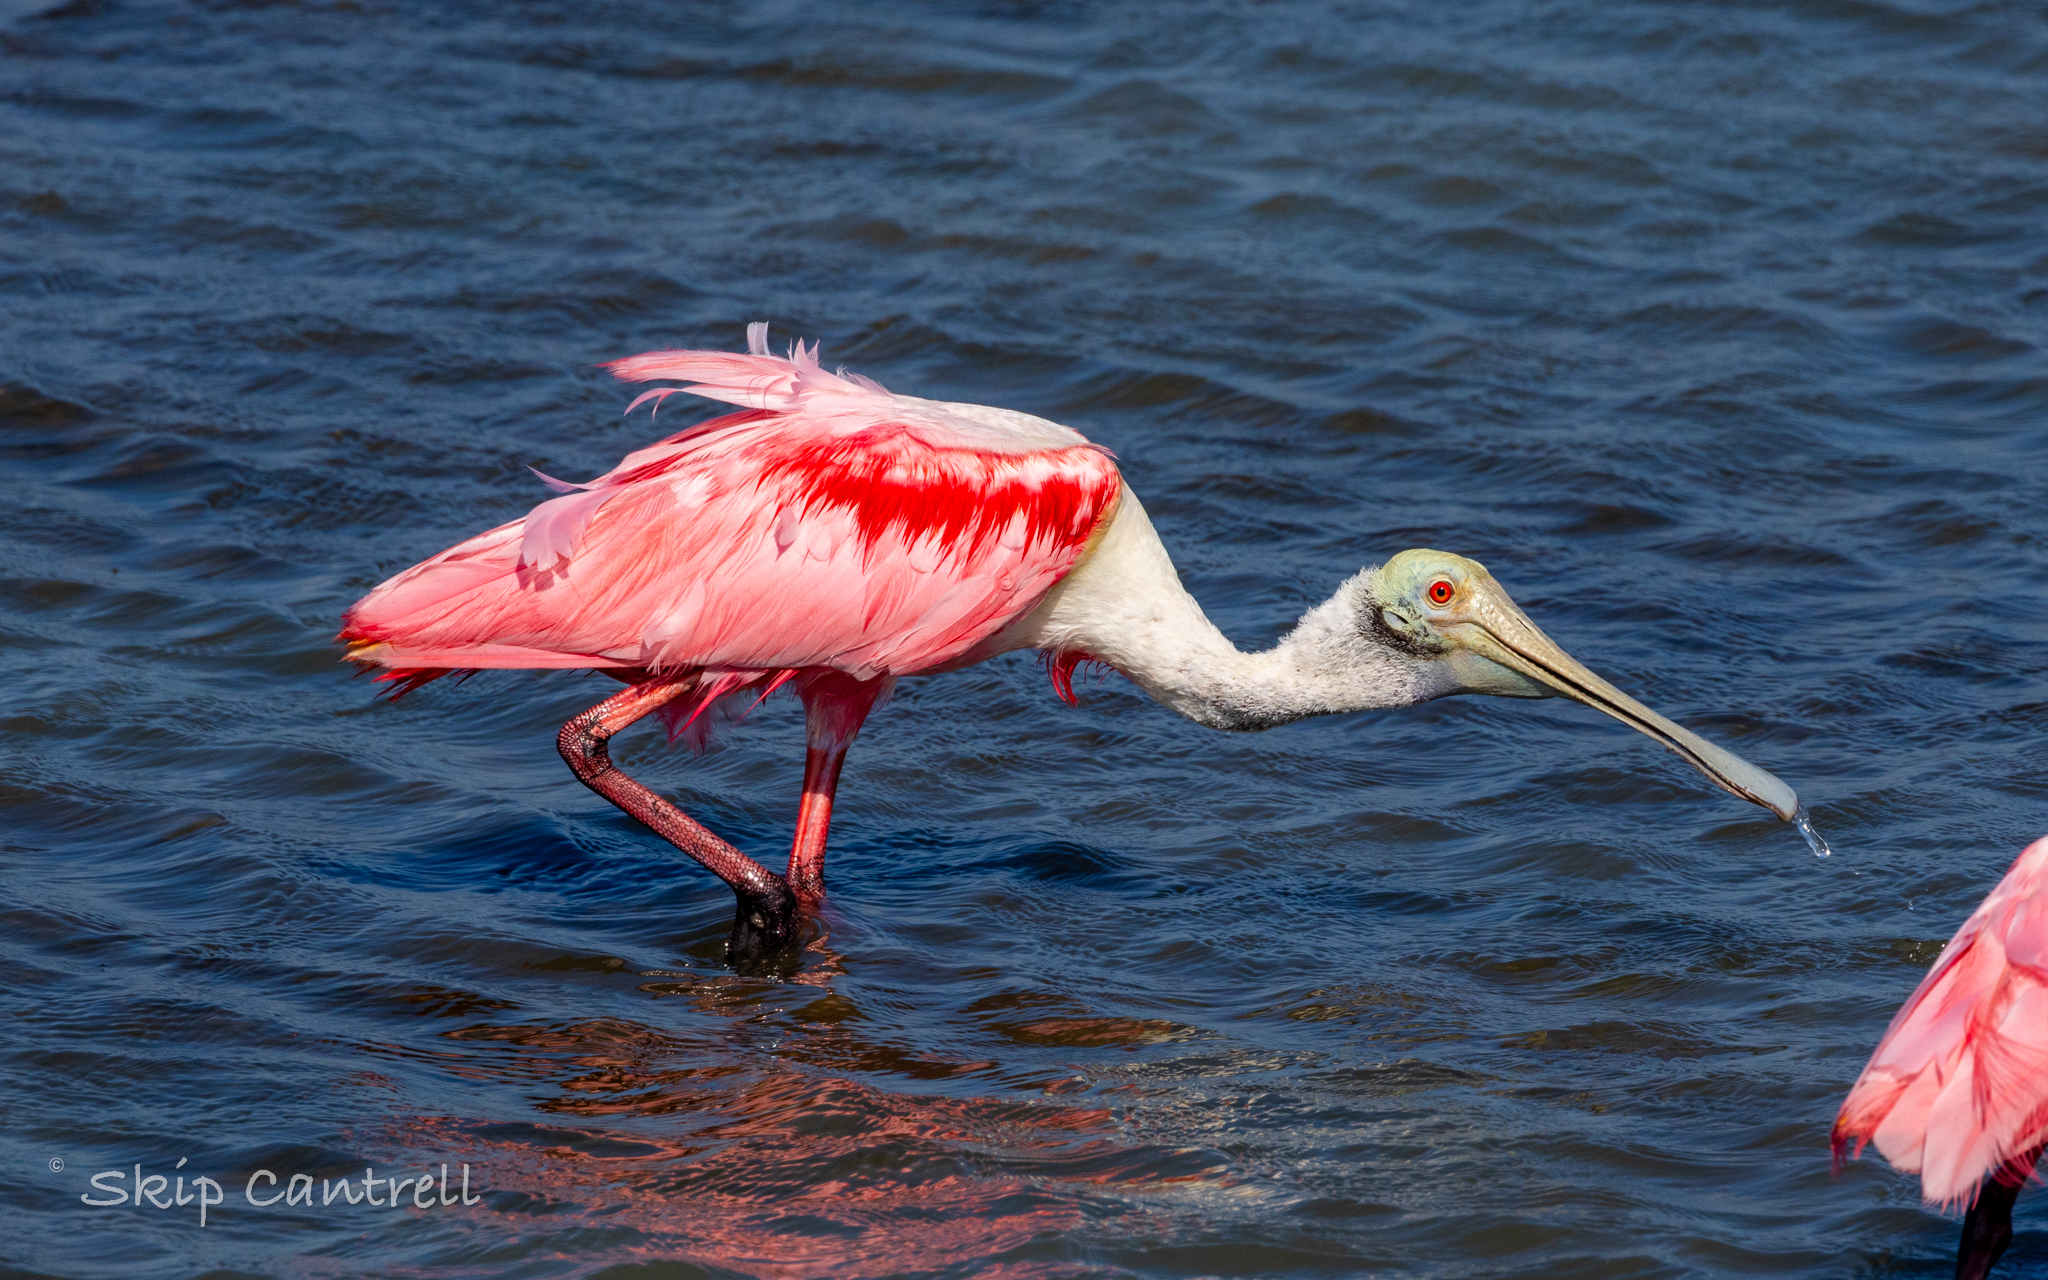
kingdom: Animalia
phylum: Chordata
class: Aves
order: Pelecaniformes
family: Threskiornithidae
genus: Platalea
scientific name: Platalea ajaja
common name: Roseate spoonbill
